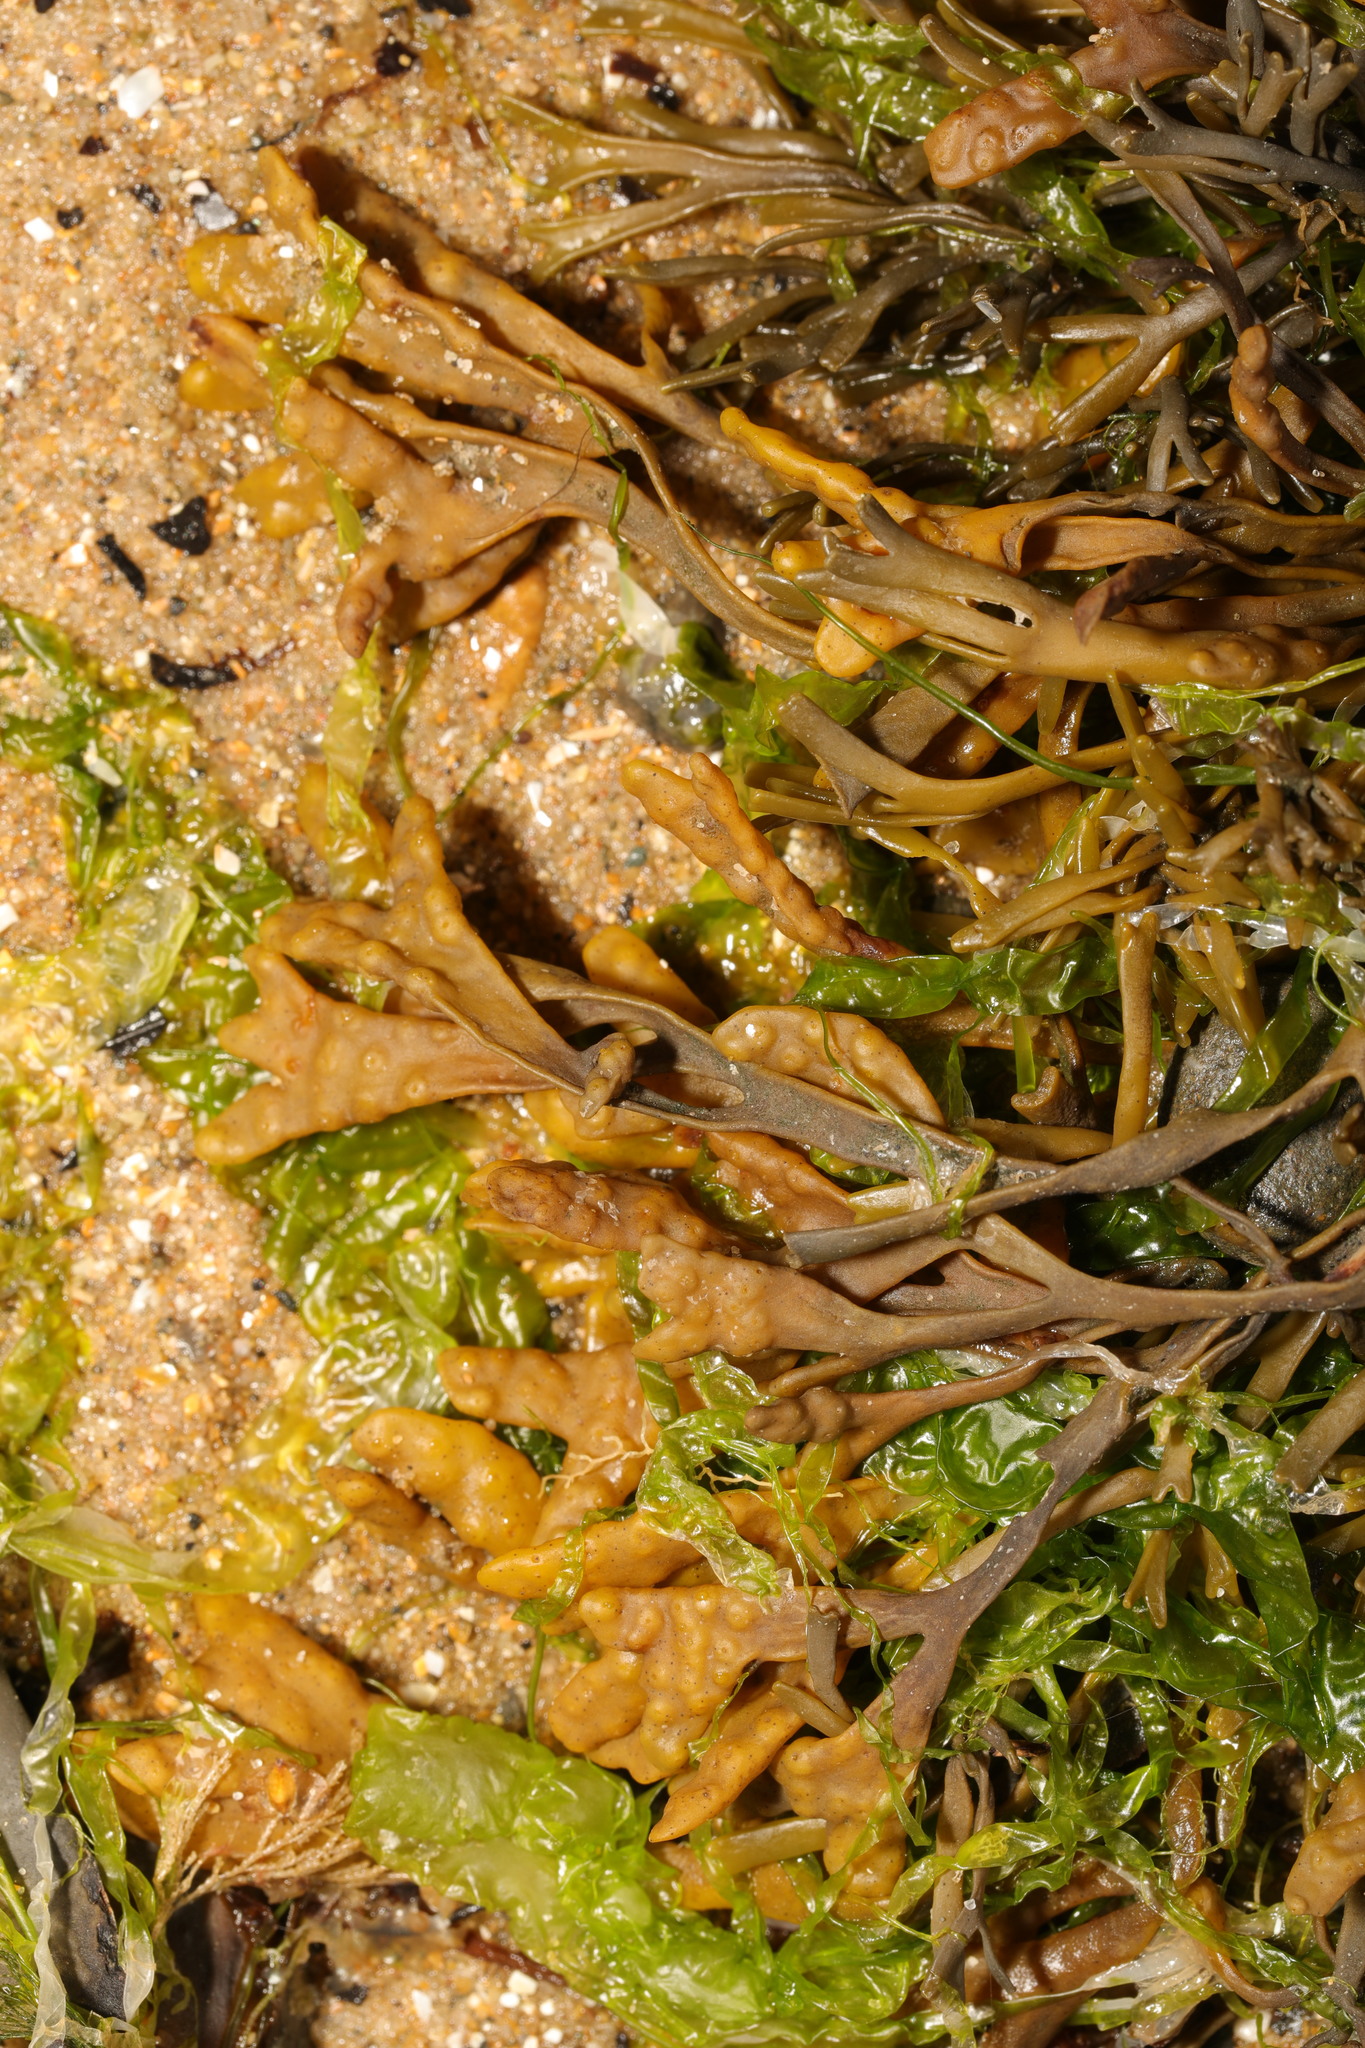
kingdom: Chromista
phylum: Ochrophyta
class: Phaeophyceae
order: Fucales
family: Fucaceae
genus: Pelvetia
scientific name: Pelvetia canaliculata
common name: Channelled wrack
